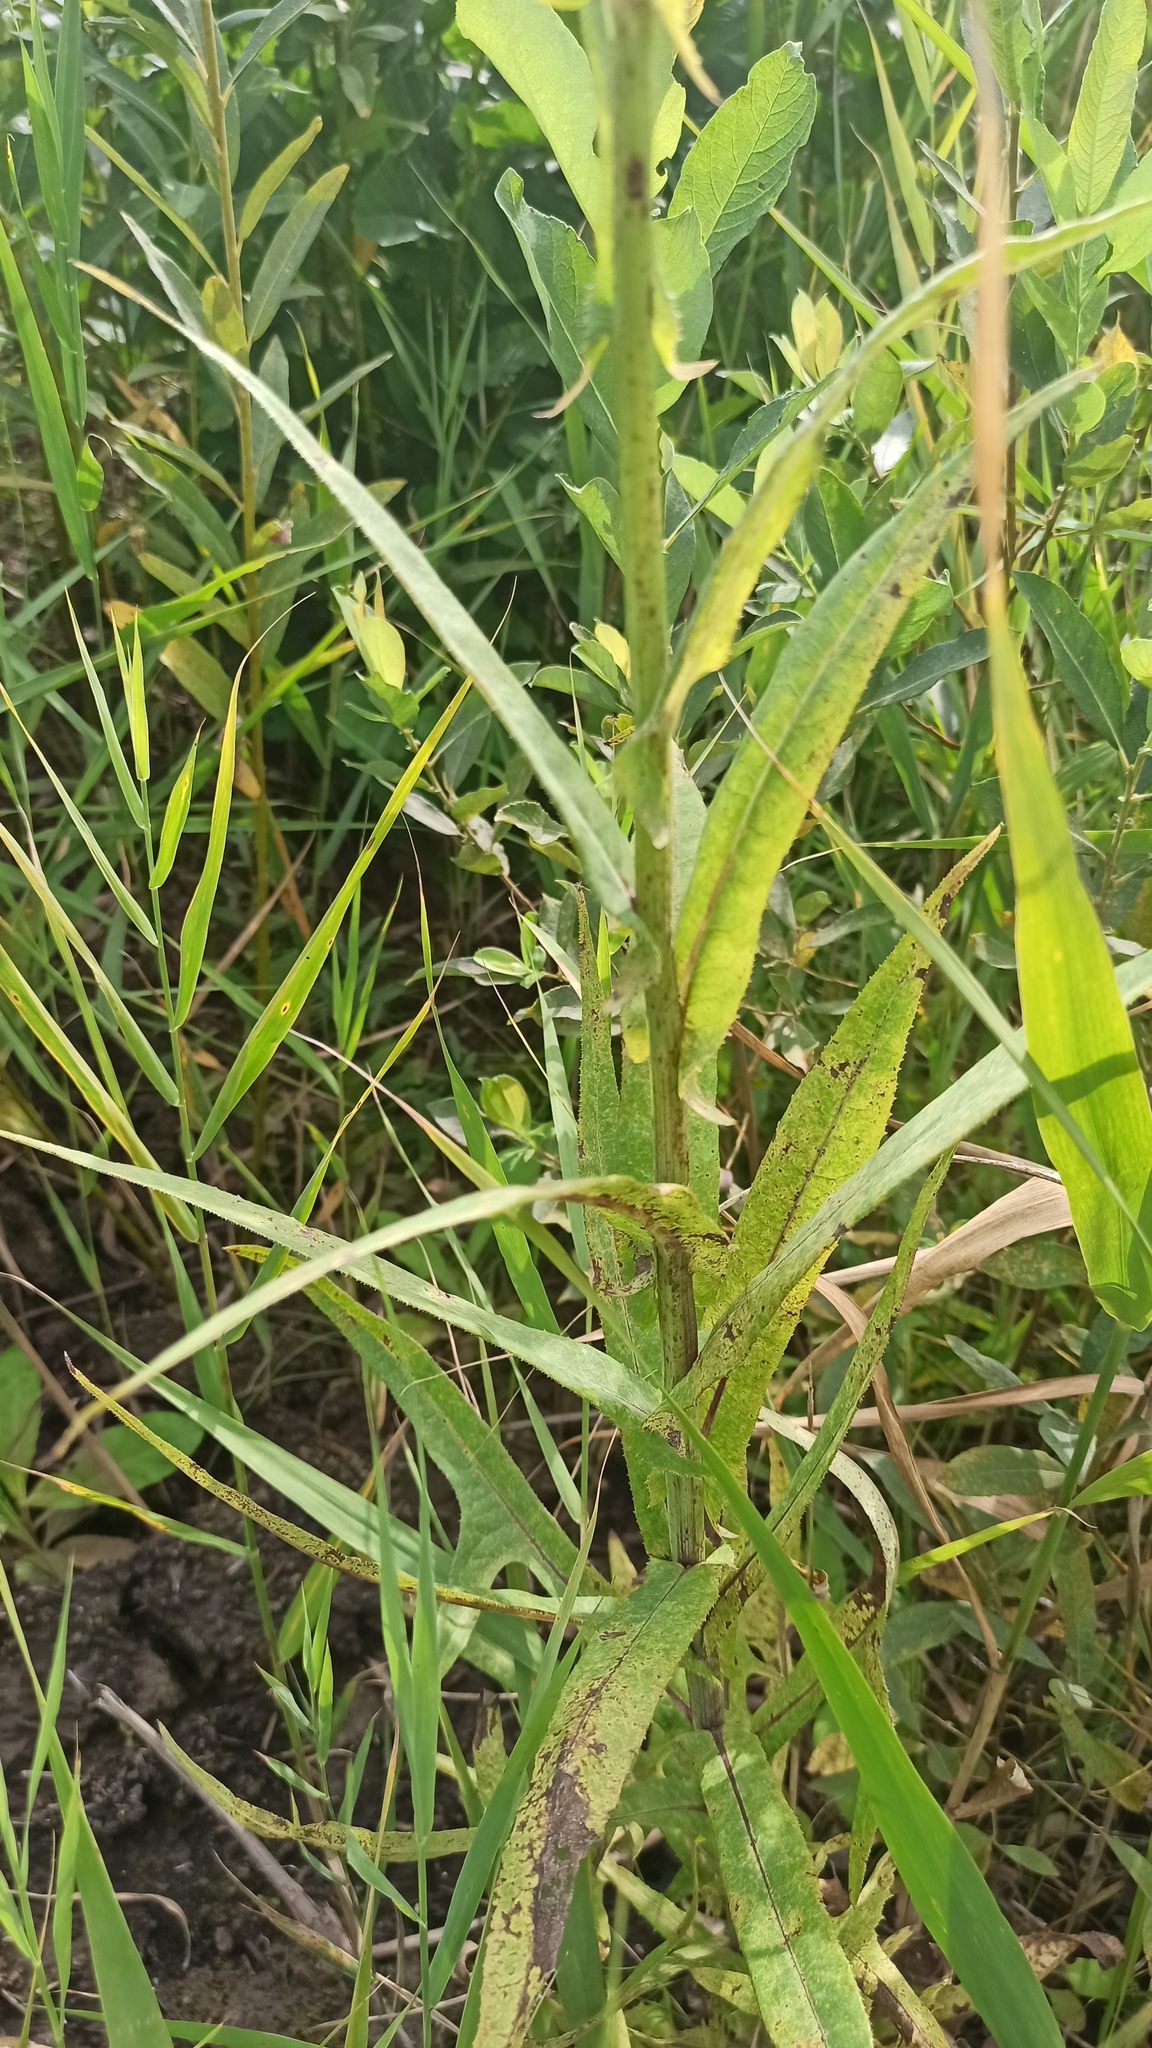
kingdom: Plantae
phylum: Tracheophyta
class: Magnoliopsida
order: Asterales
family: Asteraceae
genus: Sonchus
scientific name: Sonchus palustris
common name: Marsh sow-thistle
